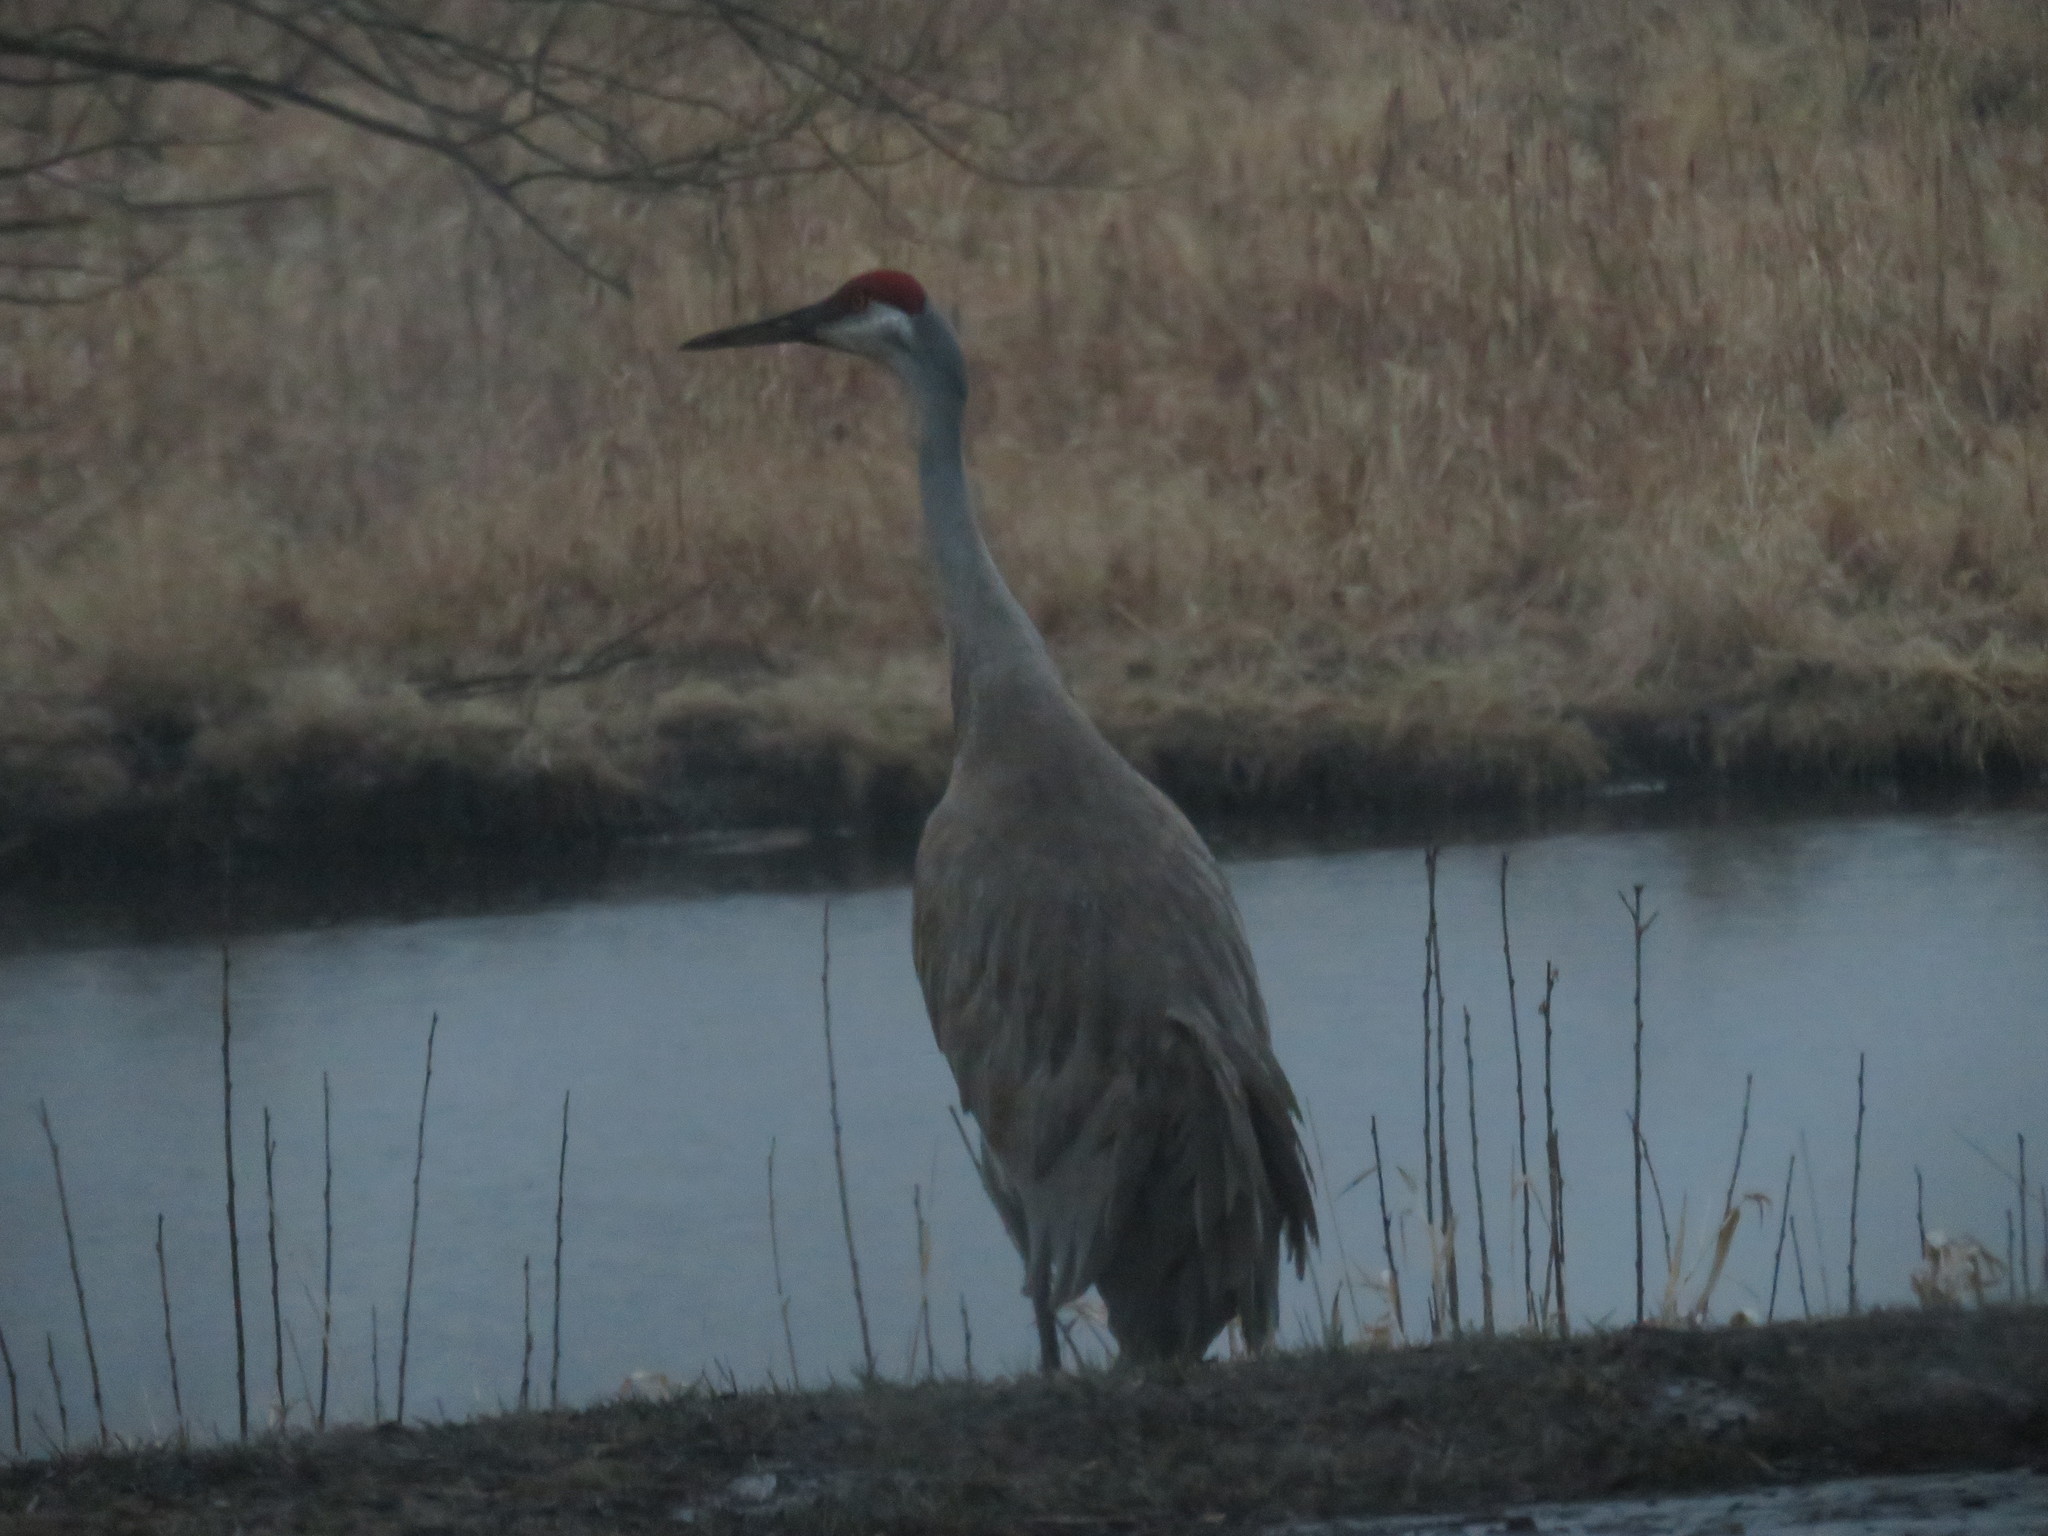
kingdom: Animalia
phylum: Chordata
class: Aves
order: Gruiformes
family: Gruidae
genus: Grus
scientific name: Grus canadensis
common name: Sandhill crane
